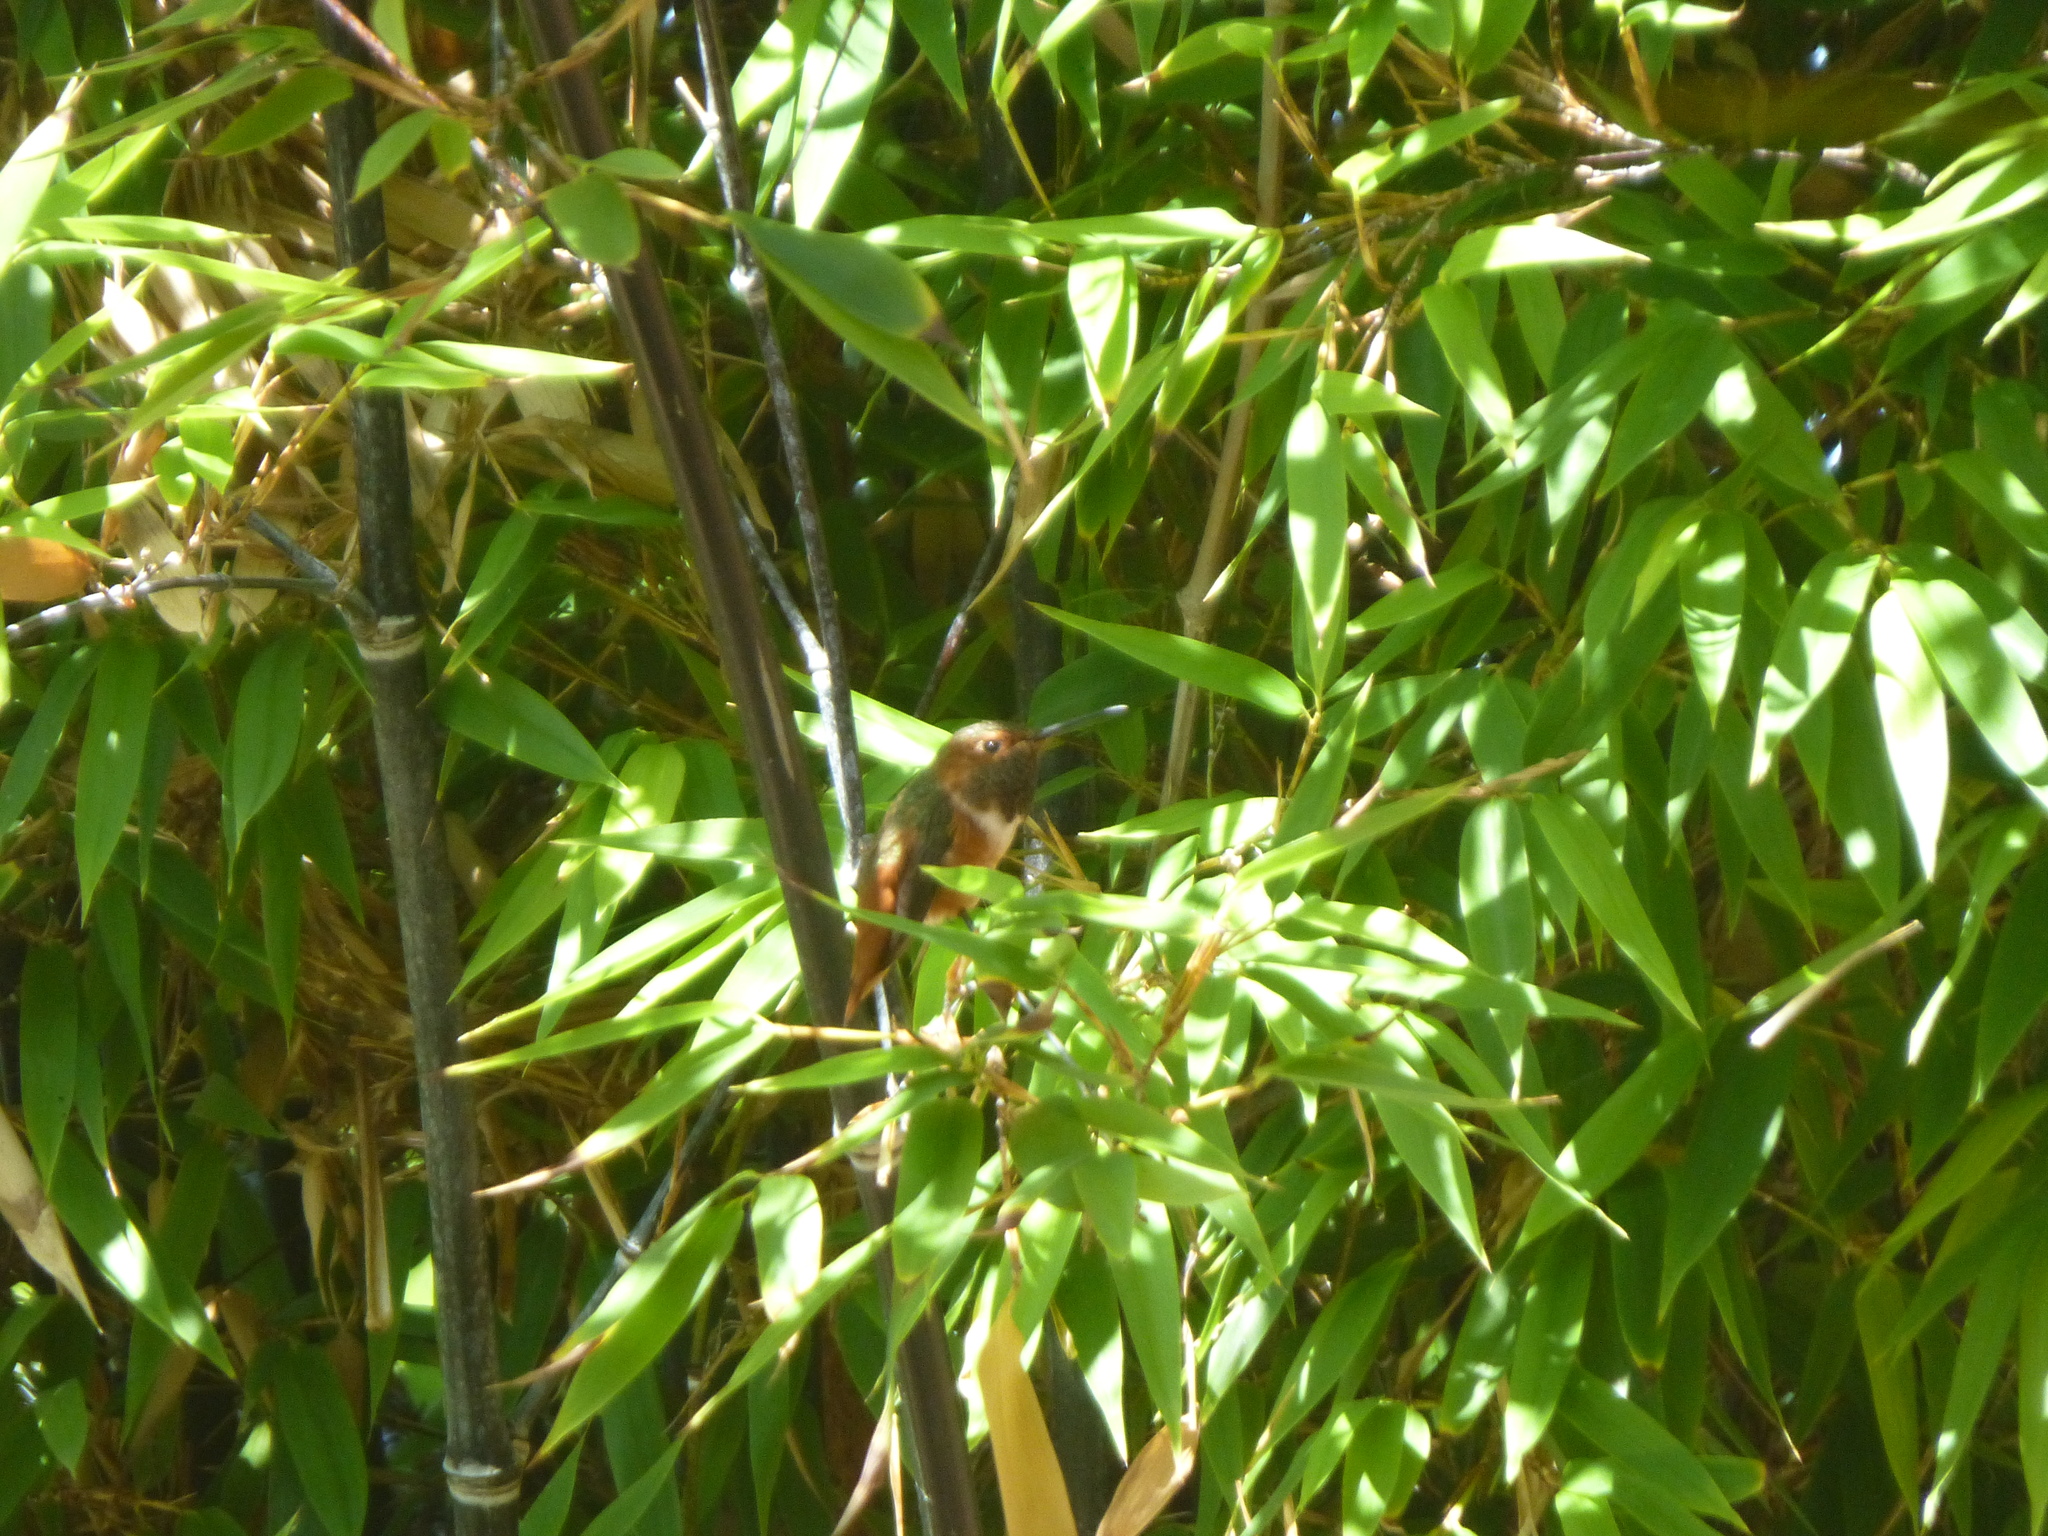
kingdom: Animalia
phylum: Chordata
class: Aves
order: Apodiformes
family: Trochilidae
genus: Selasphorus
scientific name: Selasphorus sasin
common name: Allen's hummingbird
